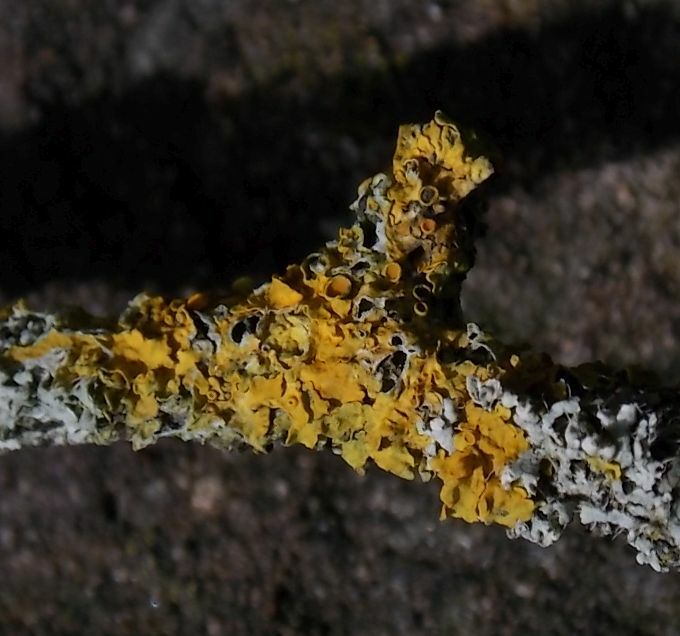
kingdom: Fungi
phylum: Ascomycota
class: Lecanoromycetes
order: Teloschistales
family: Teloschistaceae
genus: Xanthoria
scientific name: Xanthoria parietina
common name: Common orange lichen
